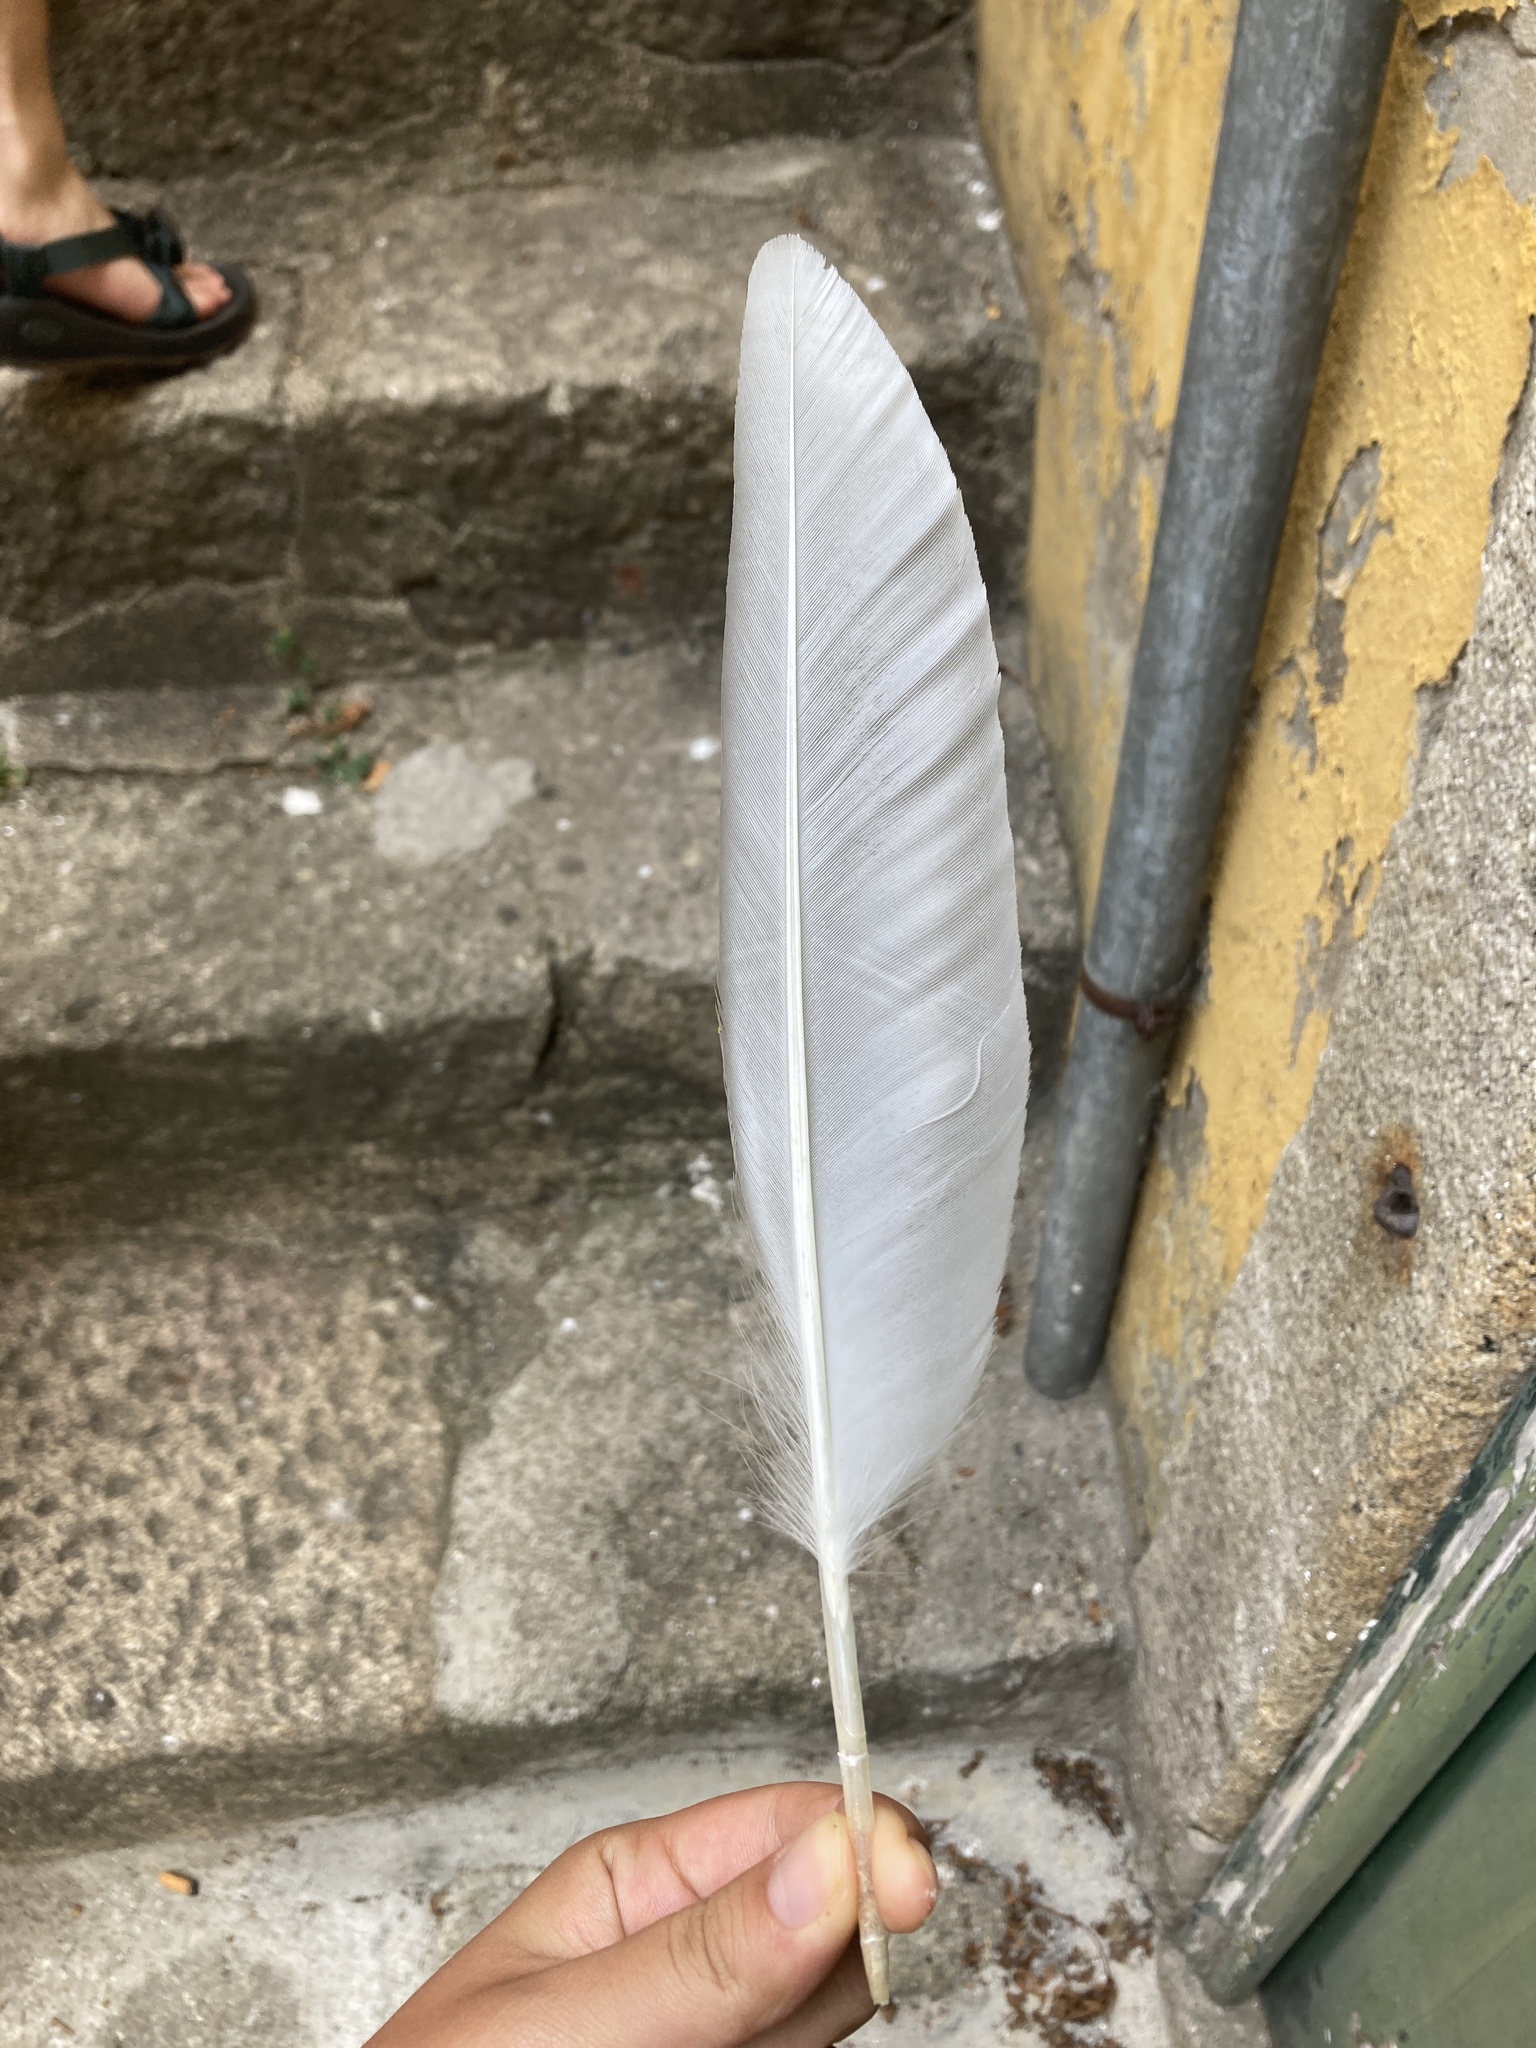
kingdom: Animalia
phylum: Chordata
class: Aves
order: Charadriiformes
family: Laridae
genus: Larus
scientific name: Larus michahellis
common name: Yellow-legged gull
